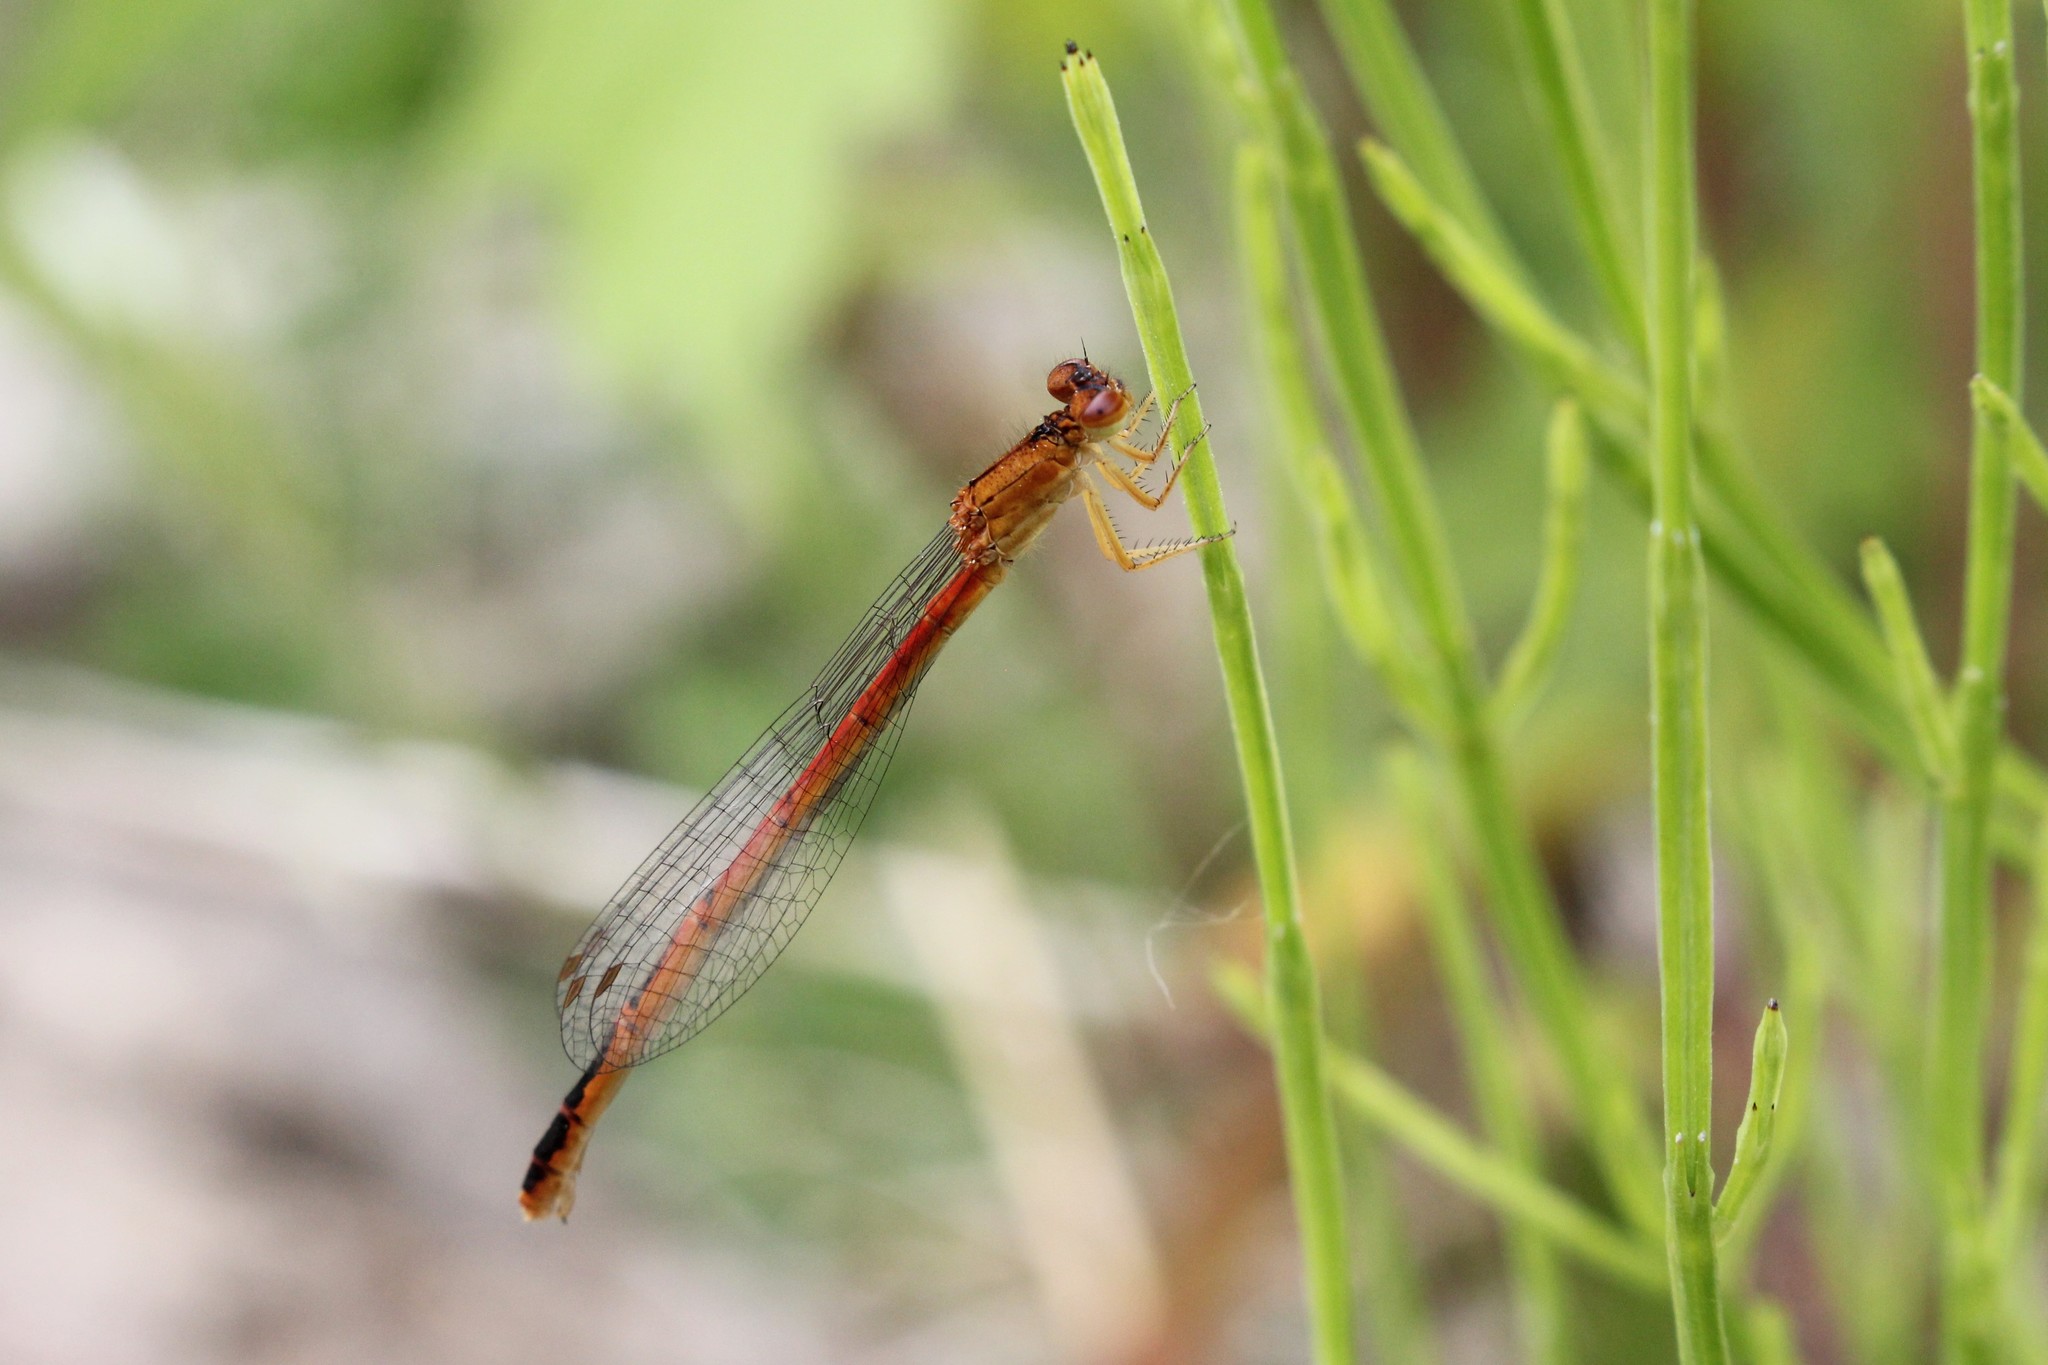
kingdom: Animalia
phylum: Arthropoda
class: Insecta
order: Odonata
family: Coenagrionidae
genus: Amphiagrion
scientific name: Amphiagrion saucium
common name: Eastern red damsel
